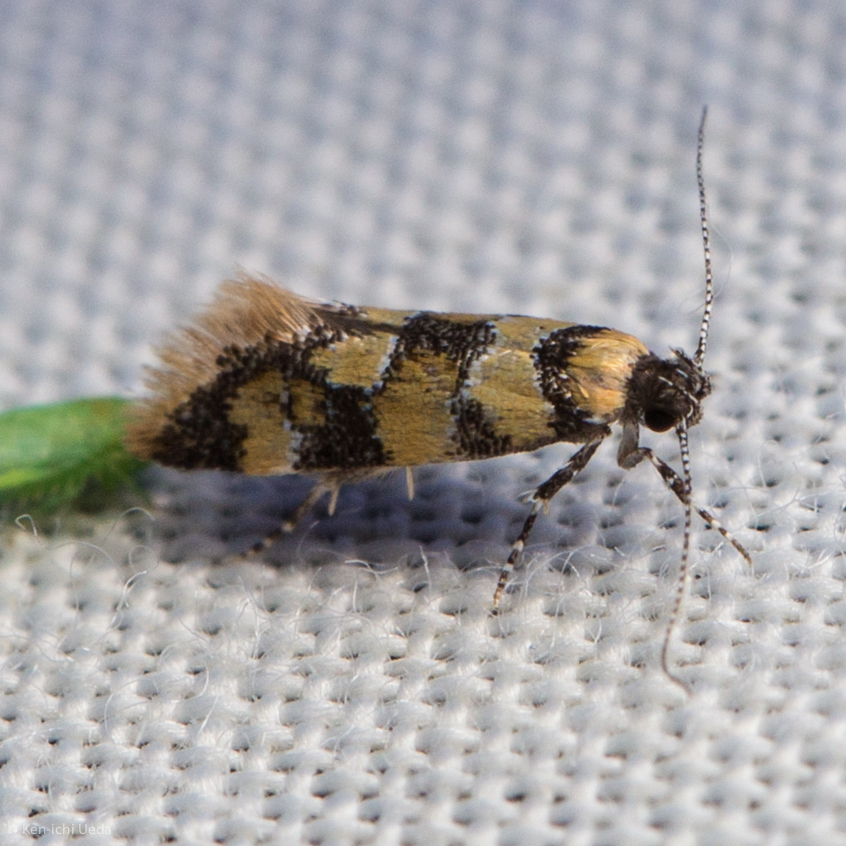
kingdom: Animalia
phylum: Arthropoda
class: Insecta
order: Lepidoptera
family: Oecophoridae
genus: Decantha
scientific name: Decantha borkhausenii
